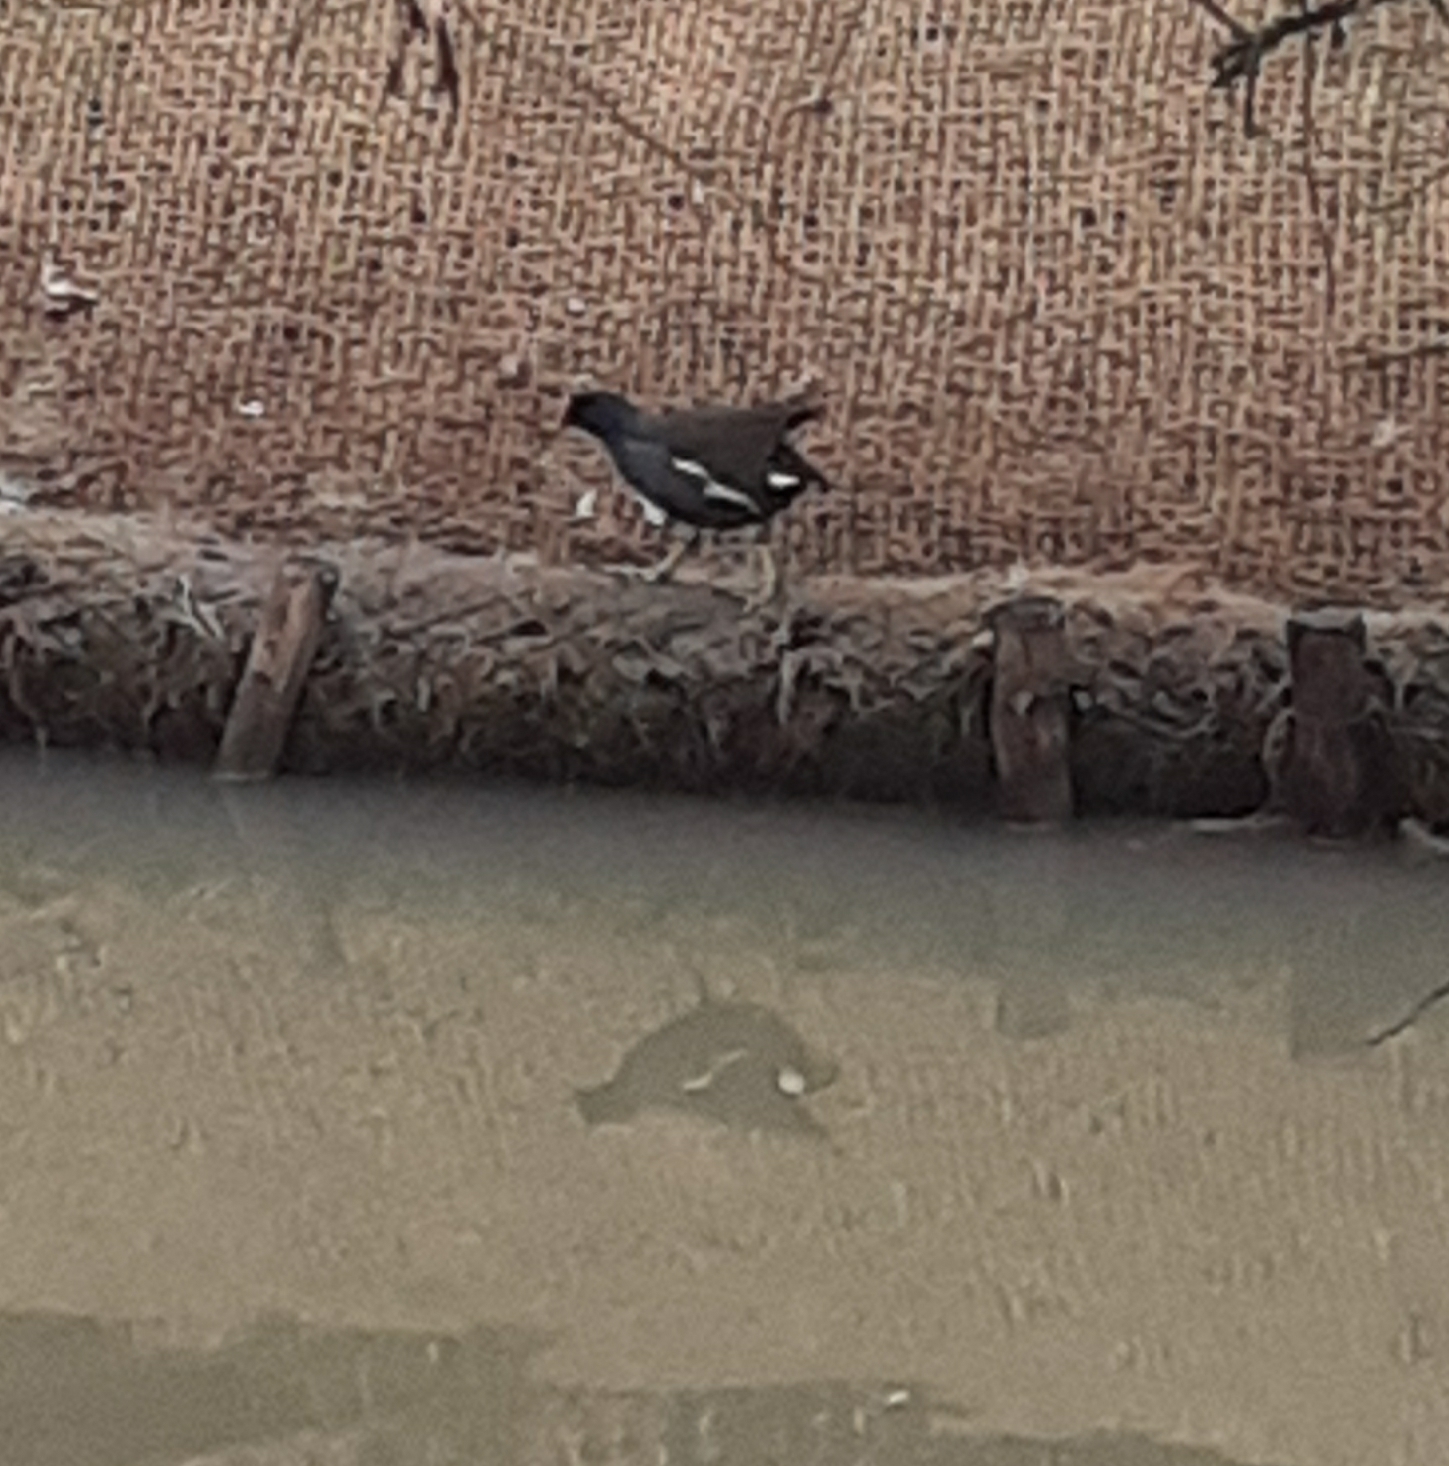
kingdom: Animalia
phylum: Chordata
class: Aves
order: Gruiformes
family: Rallidae
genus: Gallinula
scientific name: Gallinula chloropus
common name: Common moorhen
